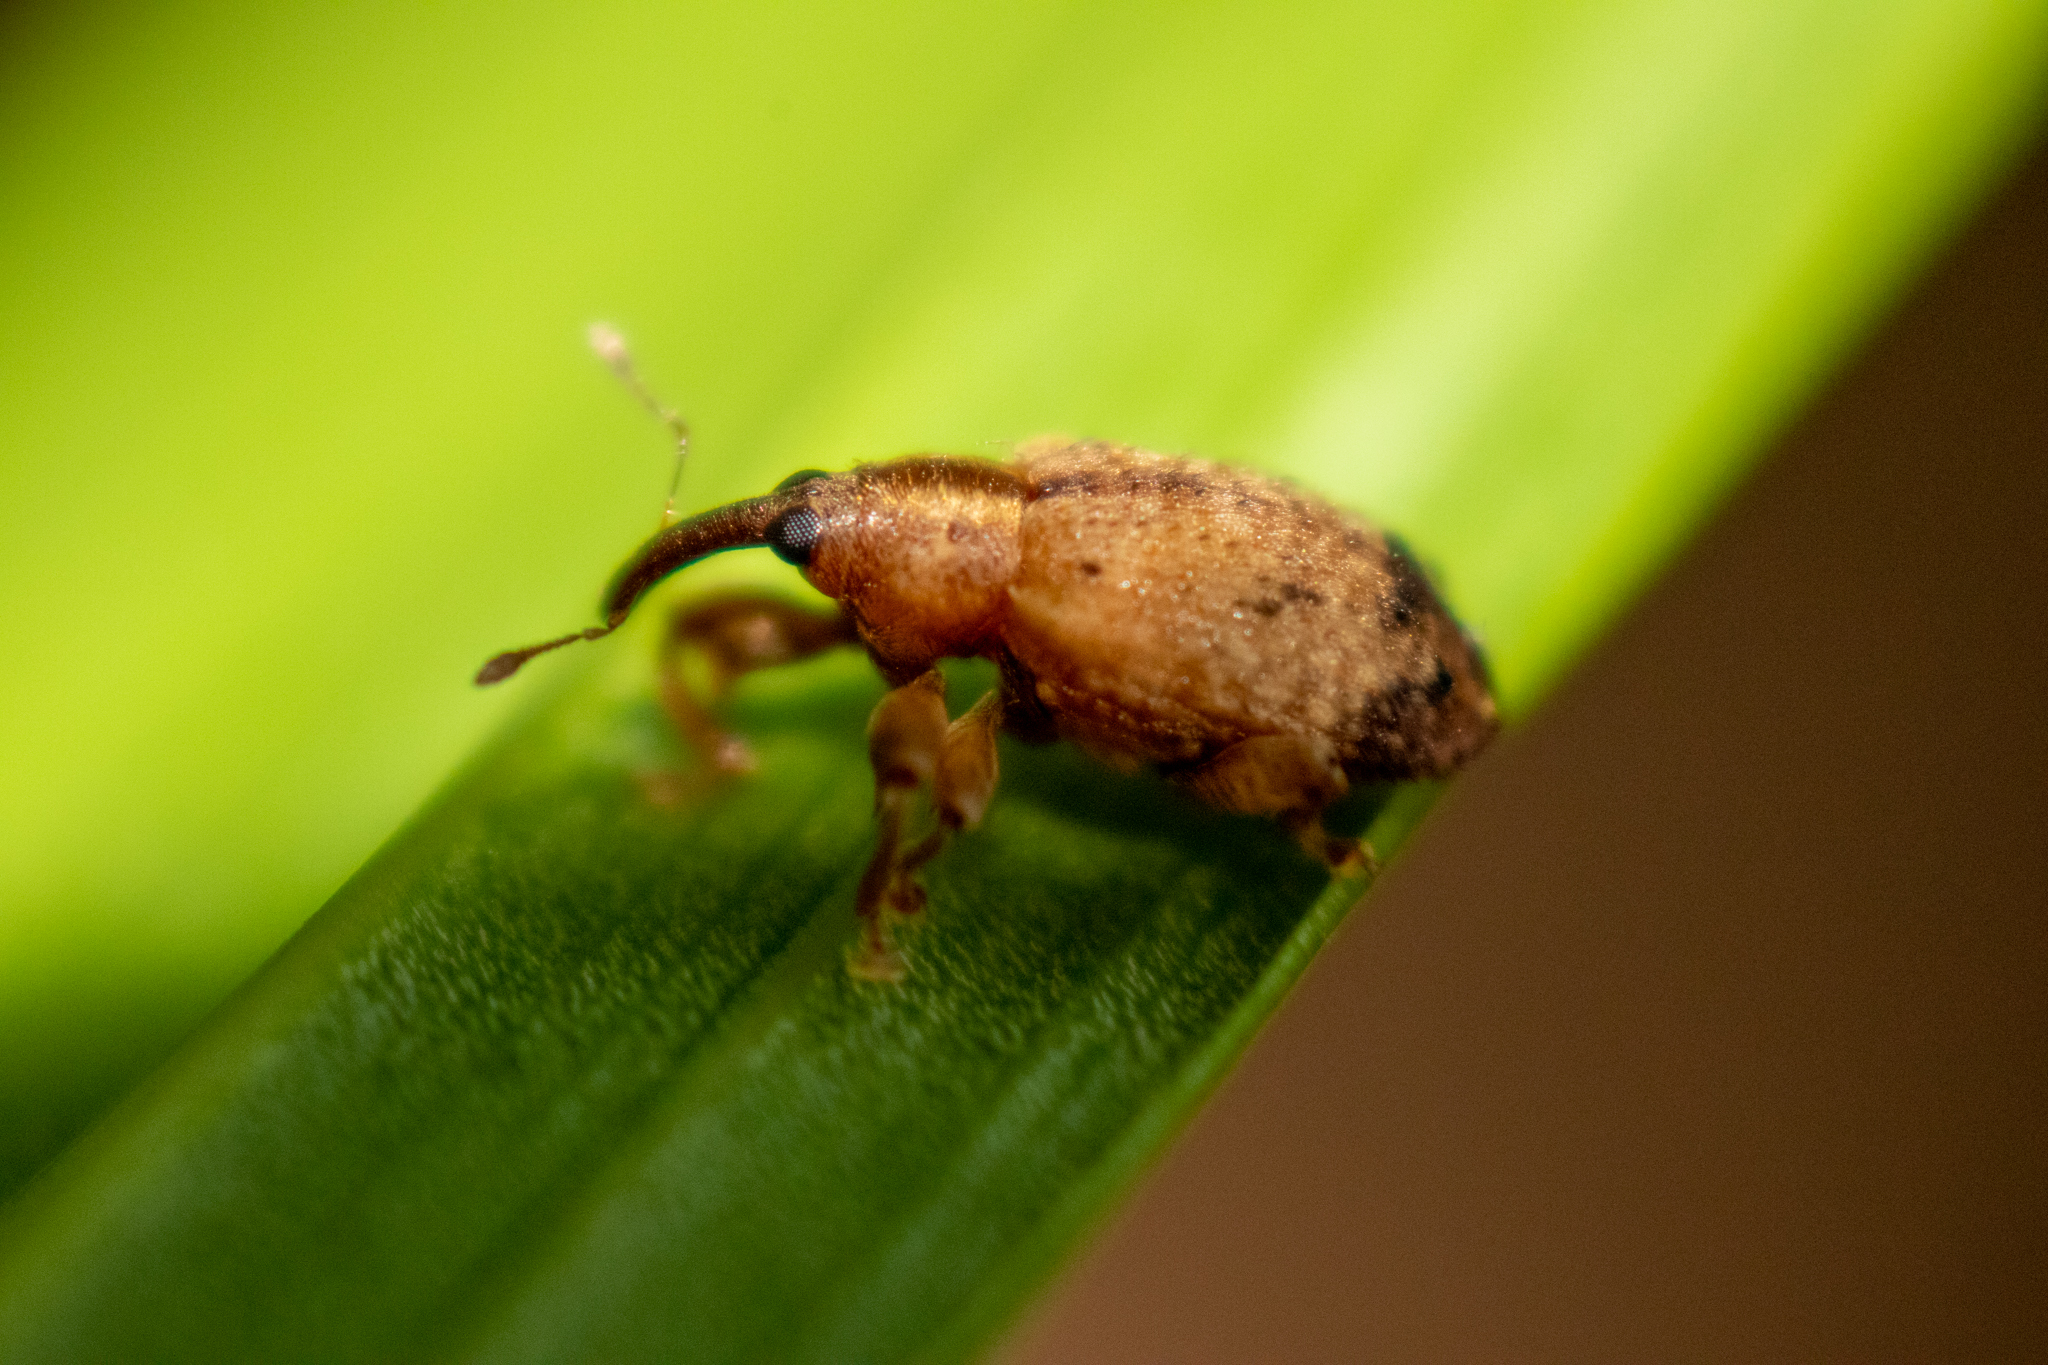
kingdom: Animalia
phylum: Arthropoda
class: Insecta
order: Coleoptera
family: Curculionidae
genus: Ochyromera
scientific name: Ochyromera ligustri
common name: Weevil
